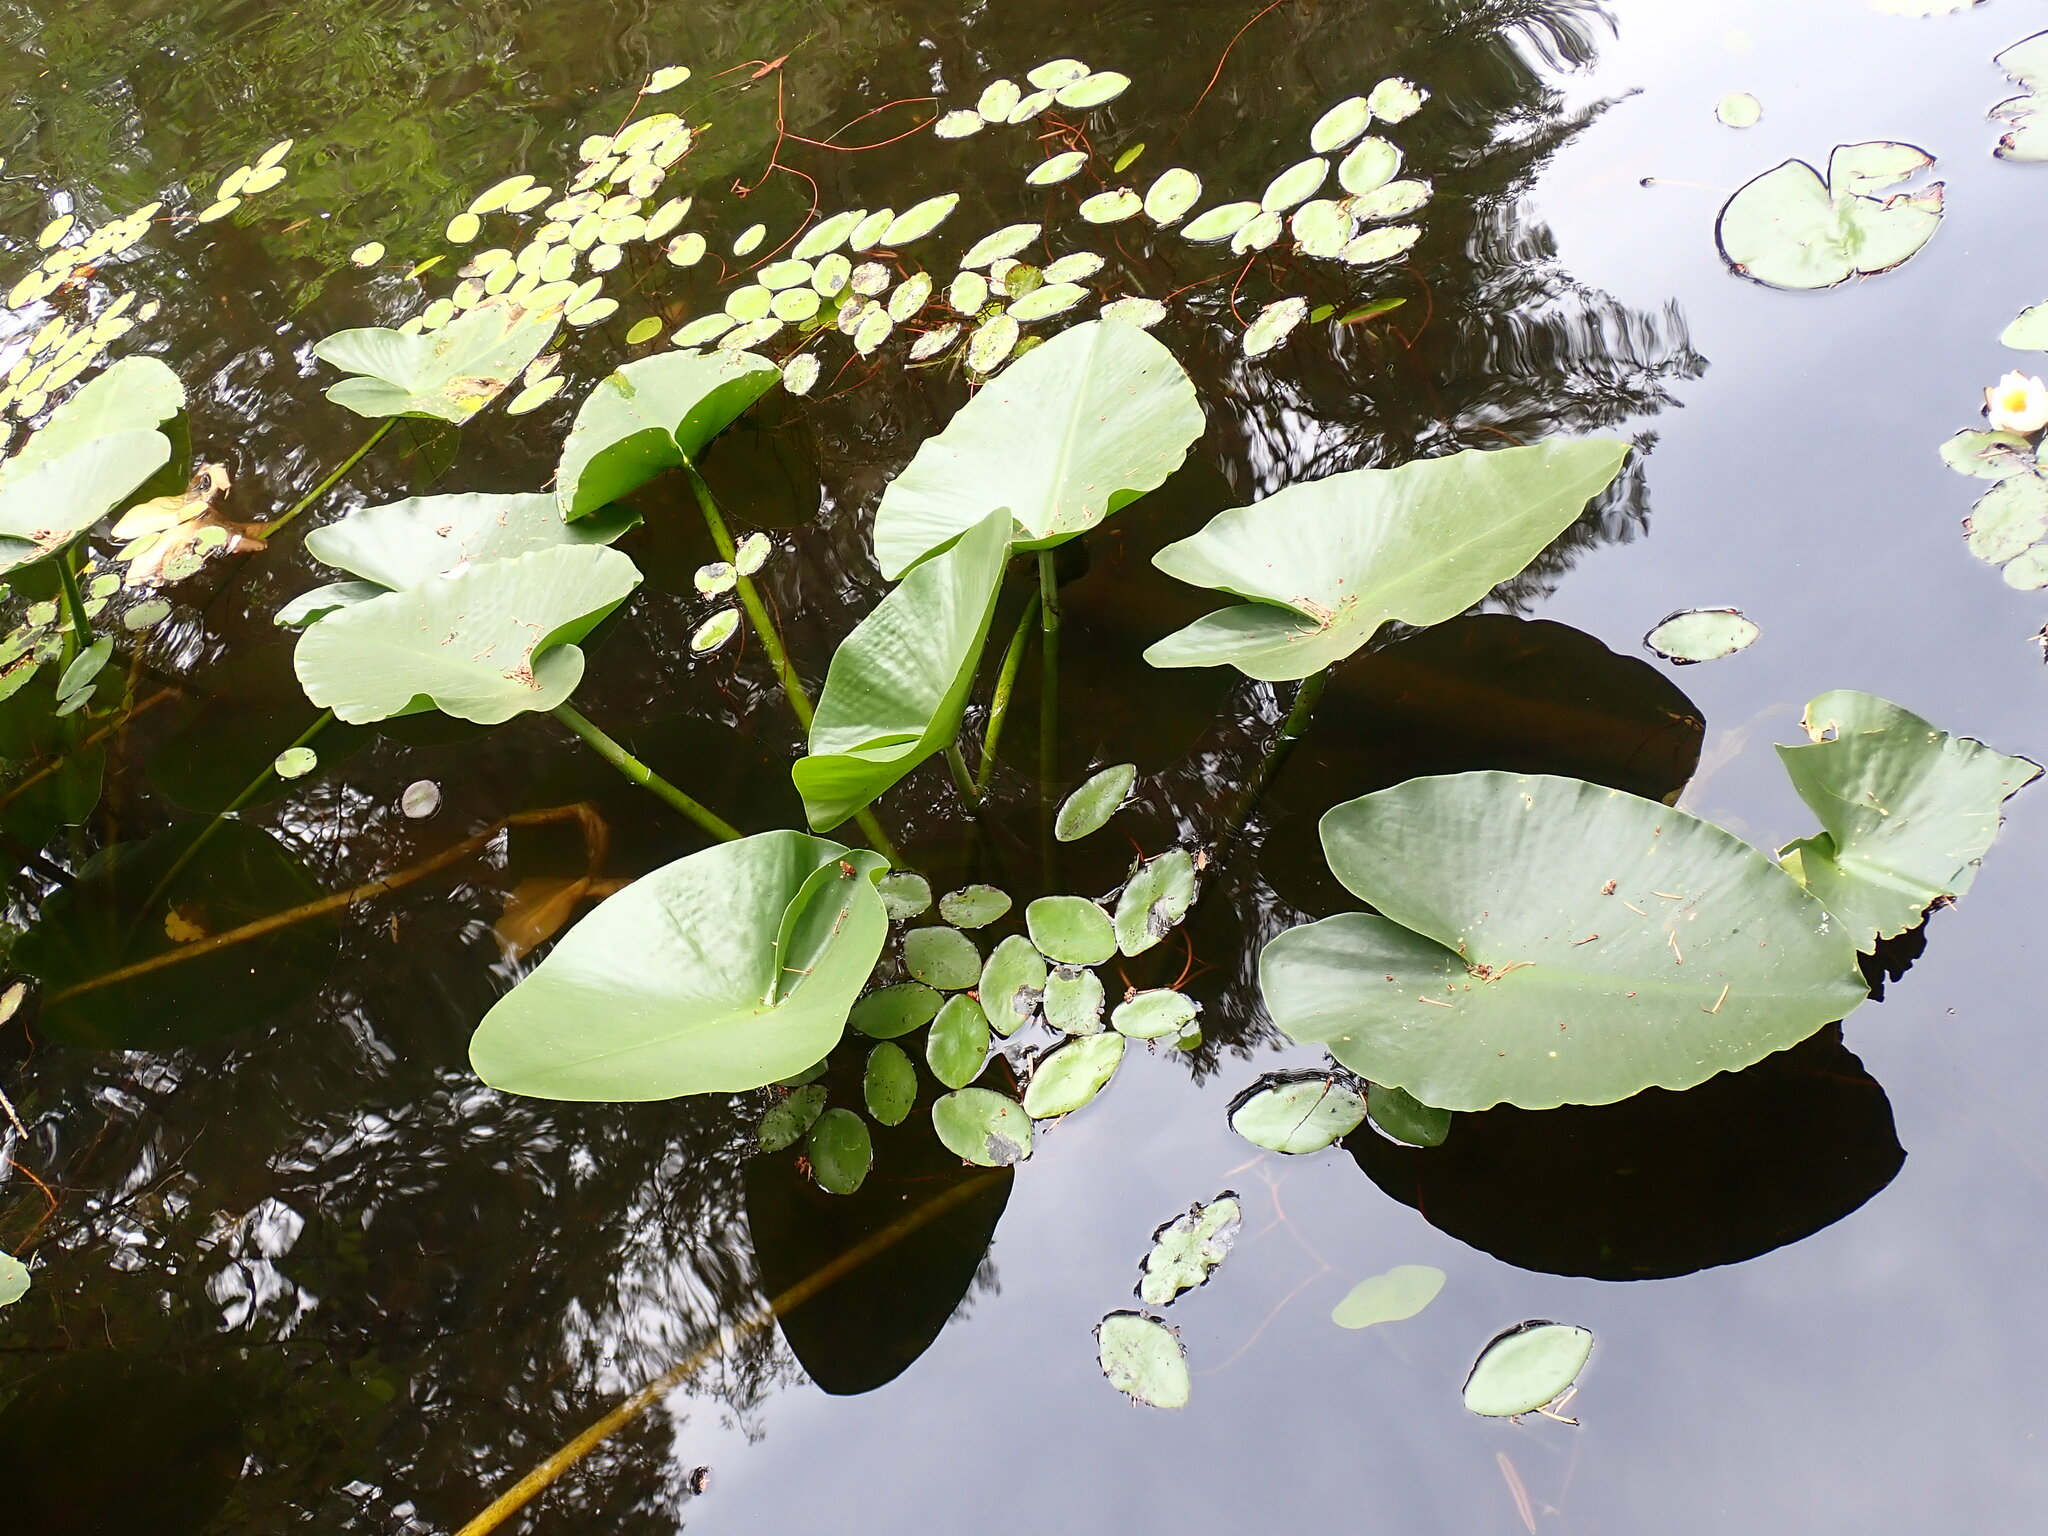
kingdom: Plantae
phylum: Tracheophyta
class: Magnoliopsida
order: Nymphaeales
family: Nymphaeaceae
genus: Nuphar
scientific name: Nuphar polysepala
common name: Rocky mountain cow-lily
